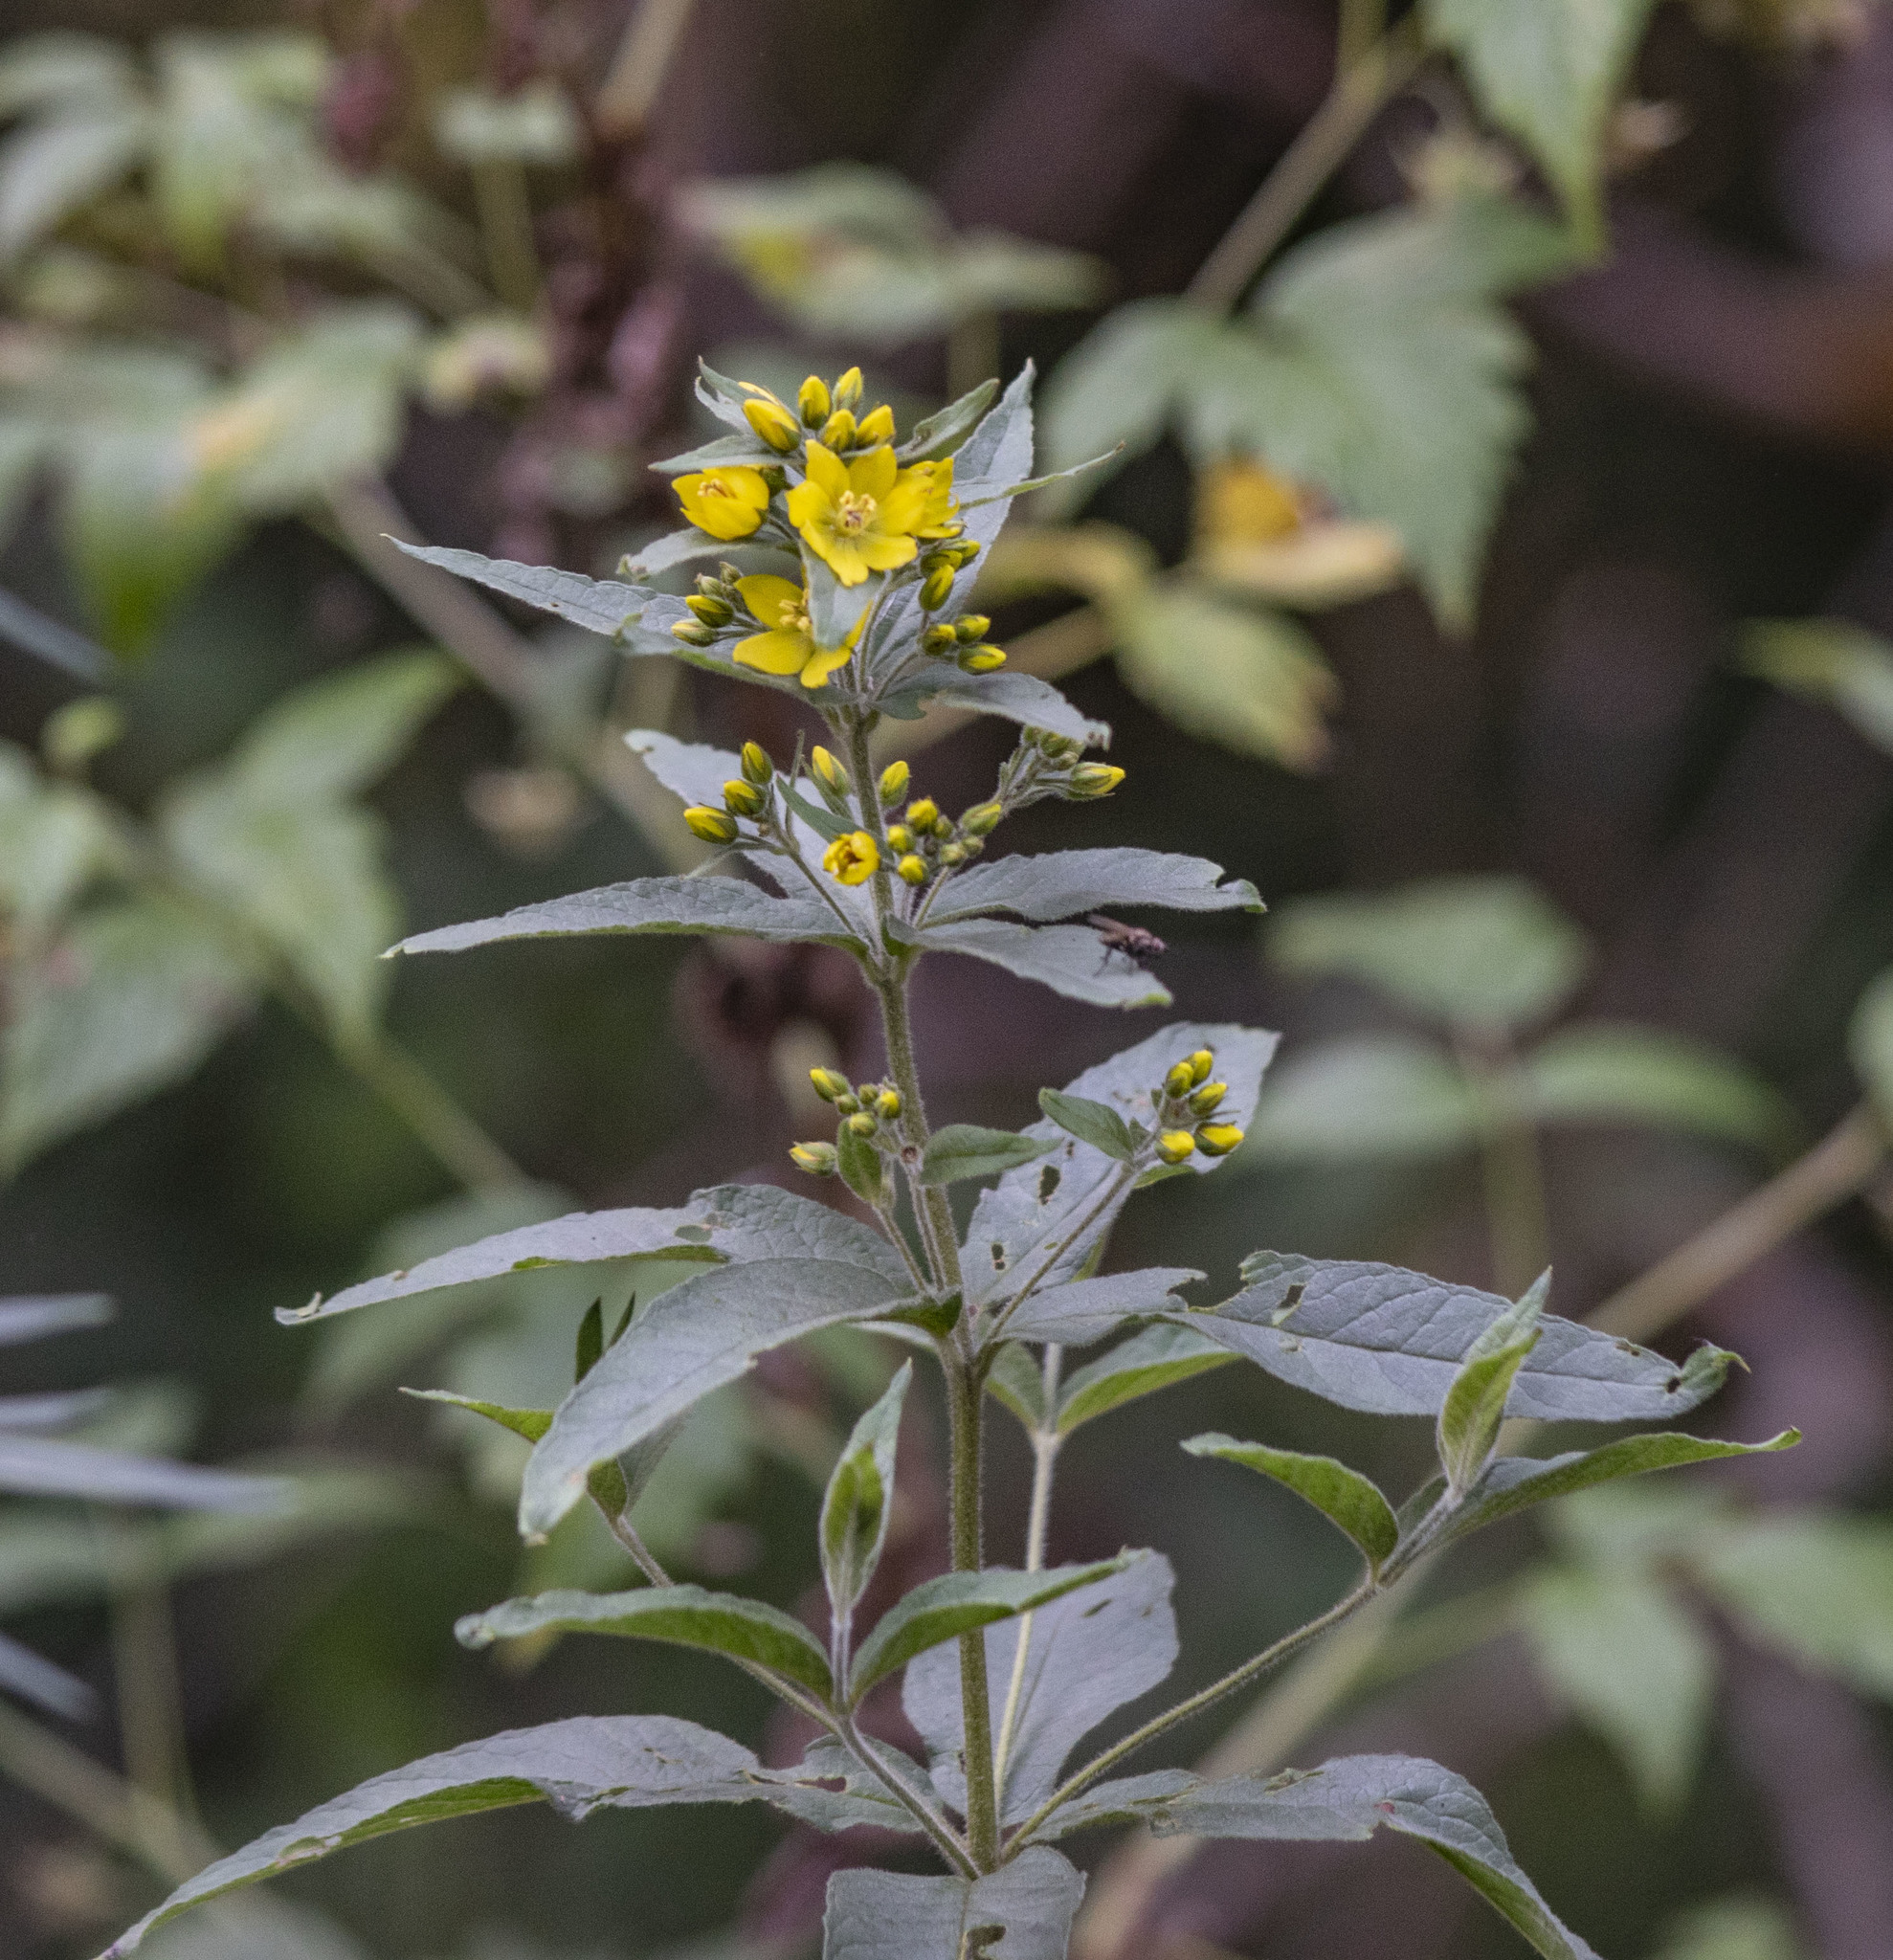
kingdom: Plantae
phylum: Tracheophyta
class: Magnoliopsida
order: Ericales
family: Primulaceae
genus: Lysimachia
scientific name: Lysimachia vulgaris
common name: Yellow loosestrife
